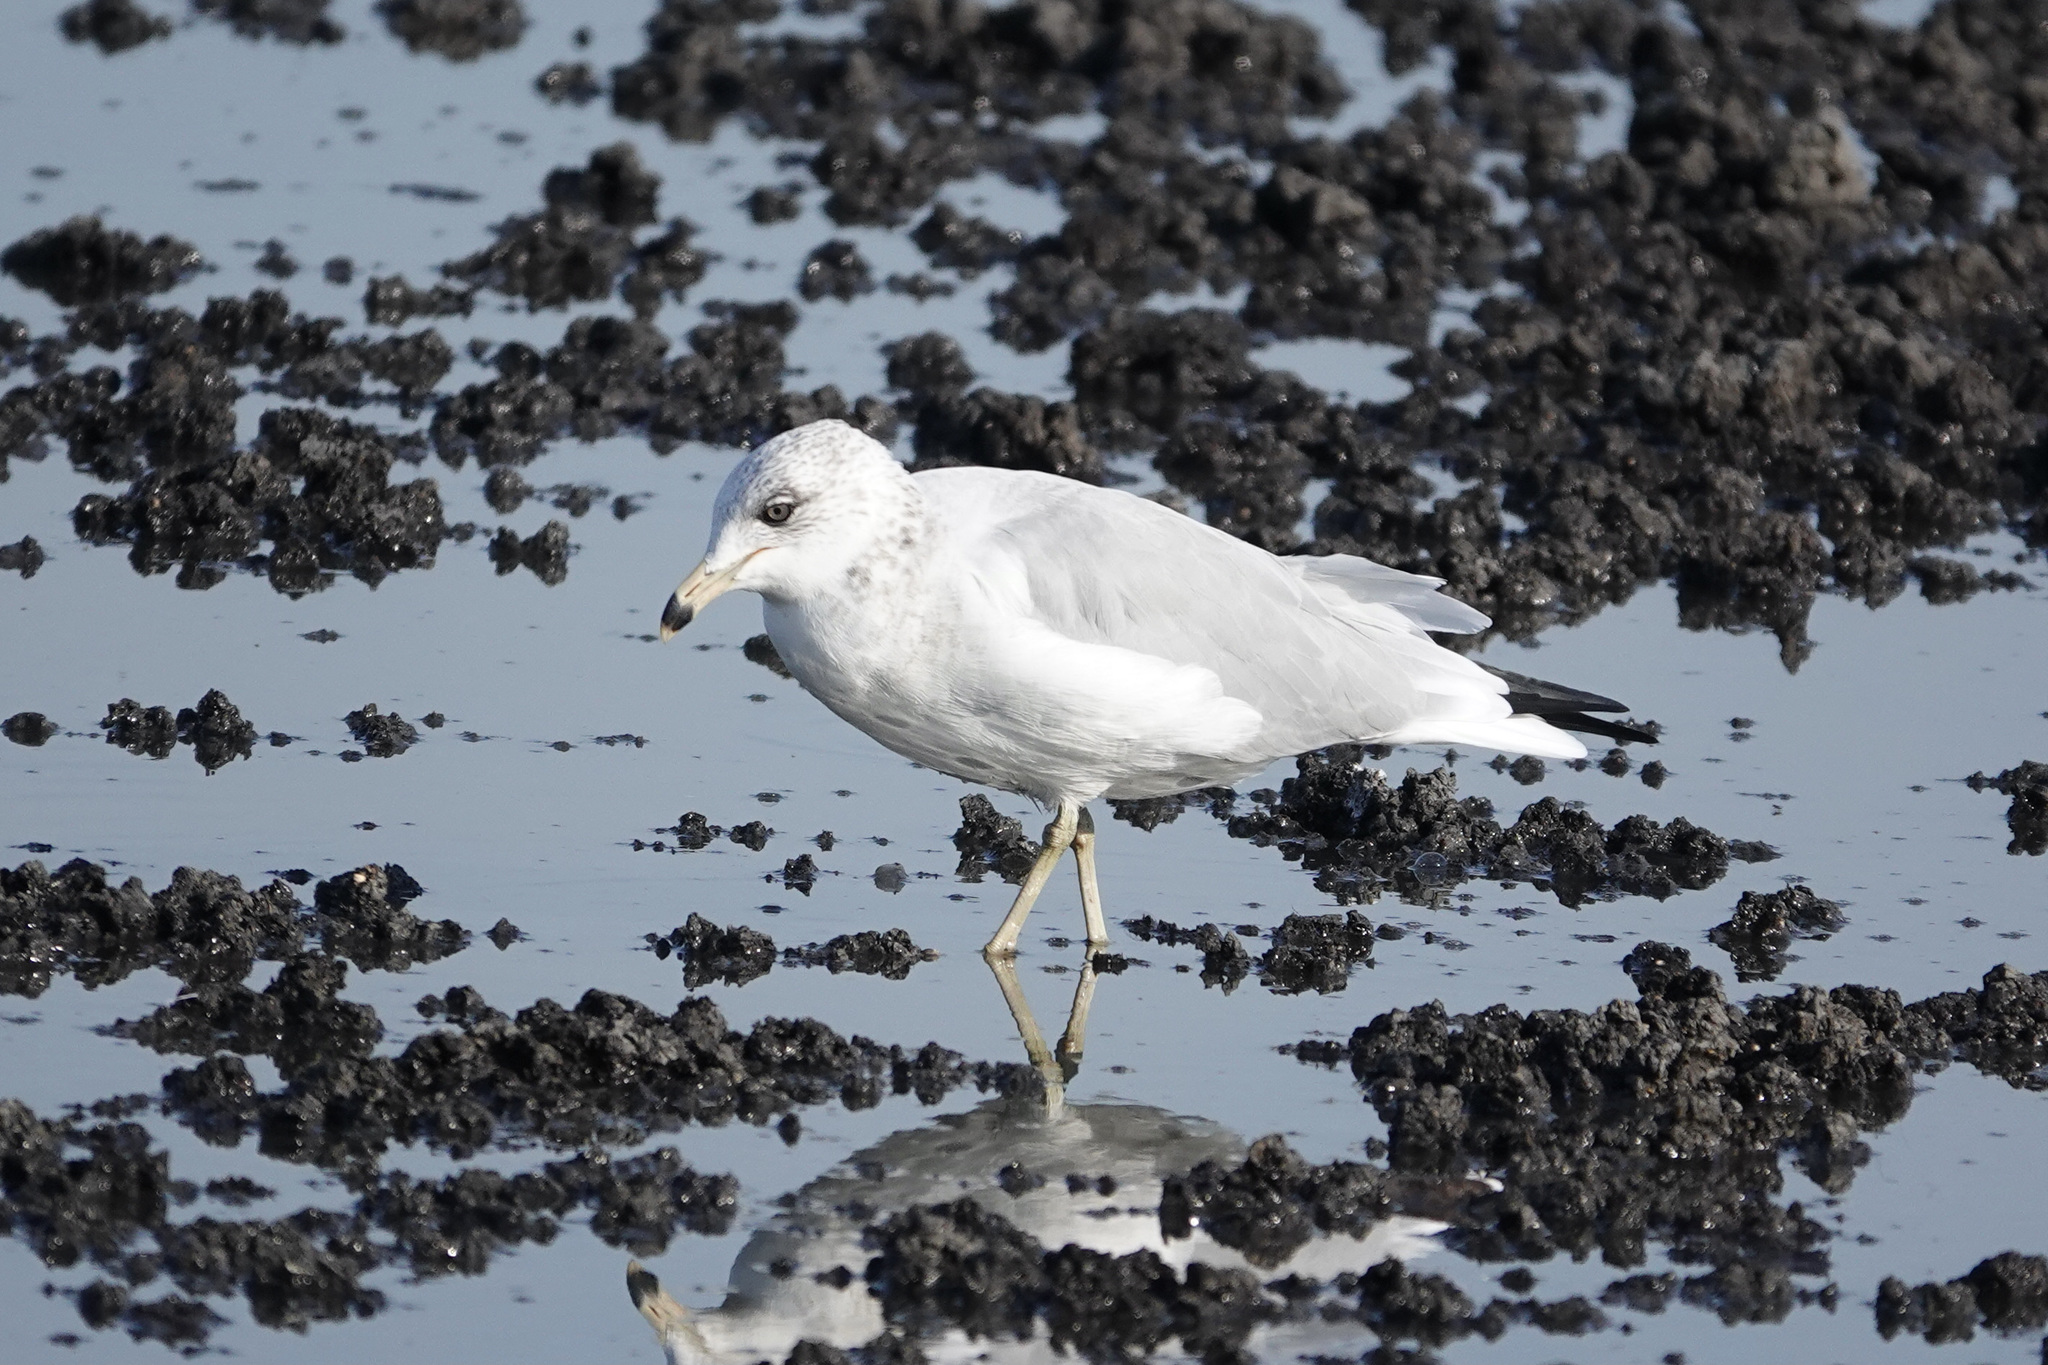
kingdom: Animalia
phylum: Chordata
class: Aves
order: Charadriiformes
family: Laridae
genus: Larus
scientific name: Larus delawarensis
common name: Ring-billed gull
